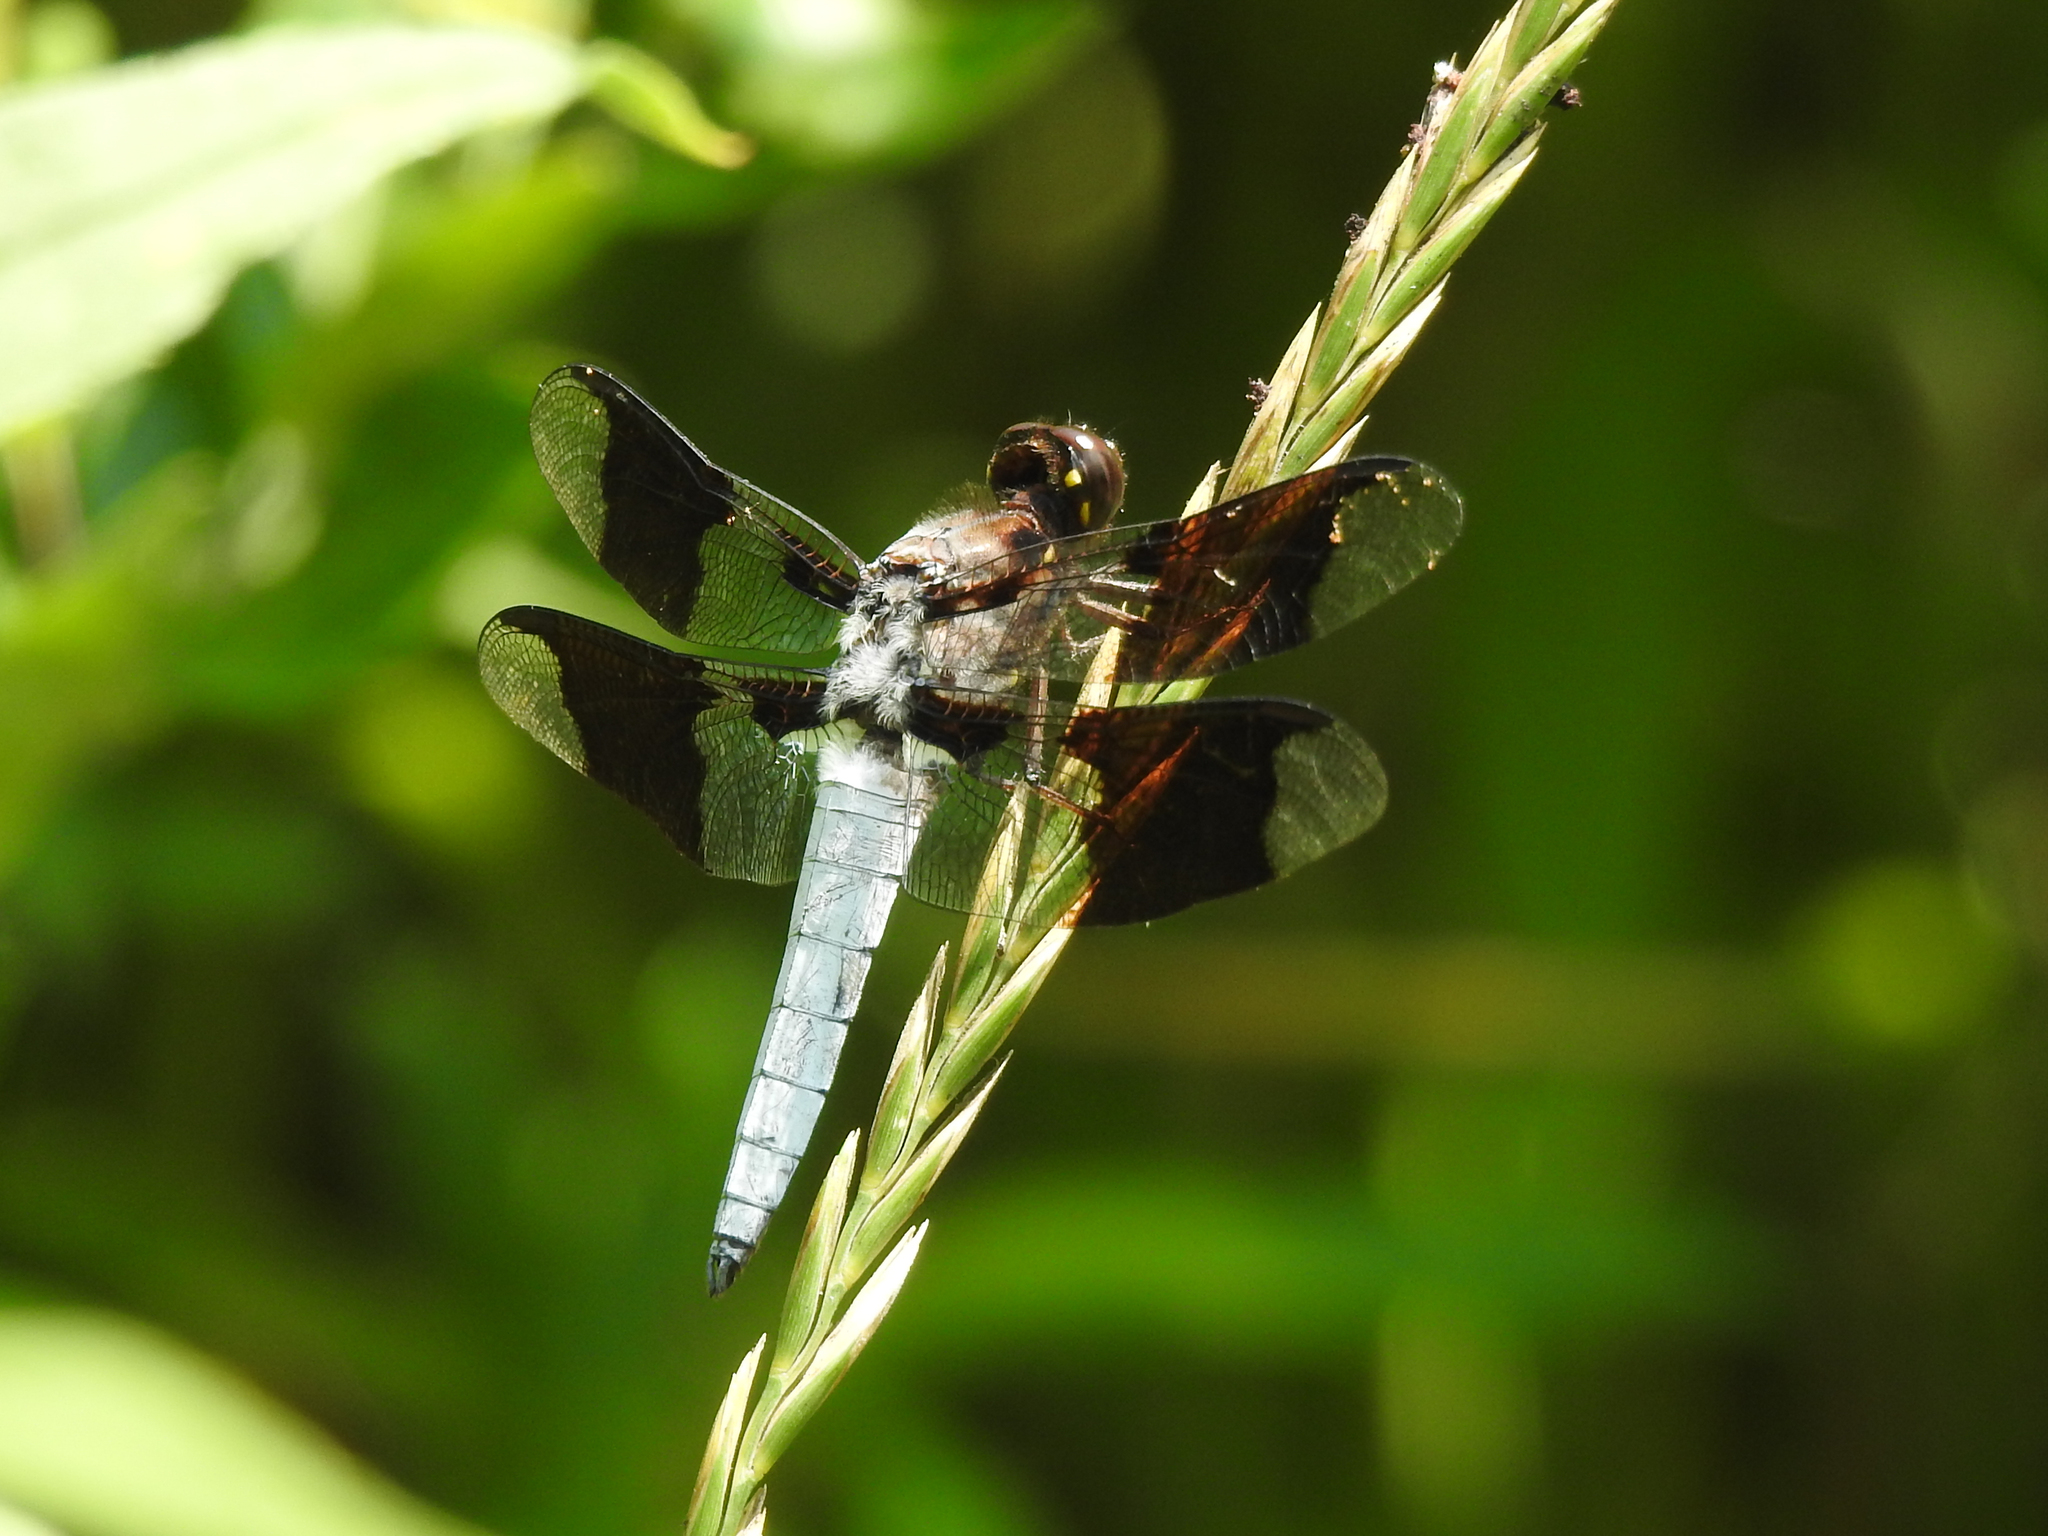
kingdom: Animalia
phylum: Arthropoda
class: Insecta
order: Odonata
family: Libellulidae
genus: Plathemis
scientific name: Plathemis lydia
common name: Common whitetail
